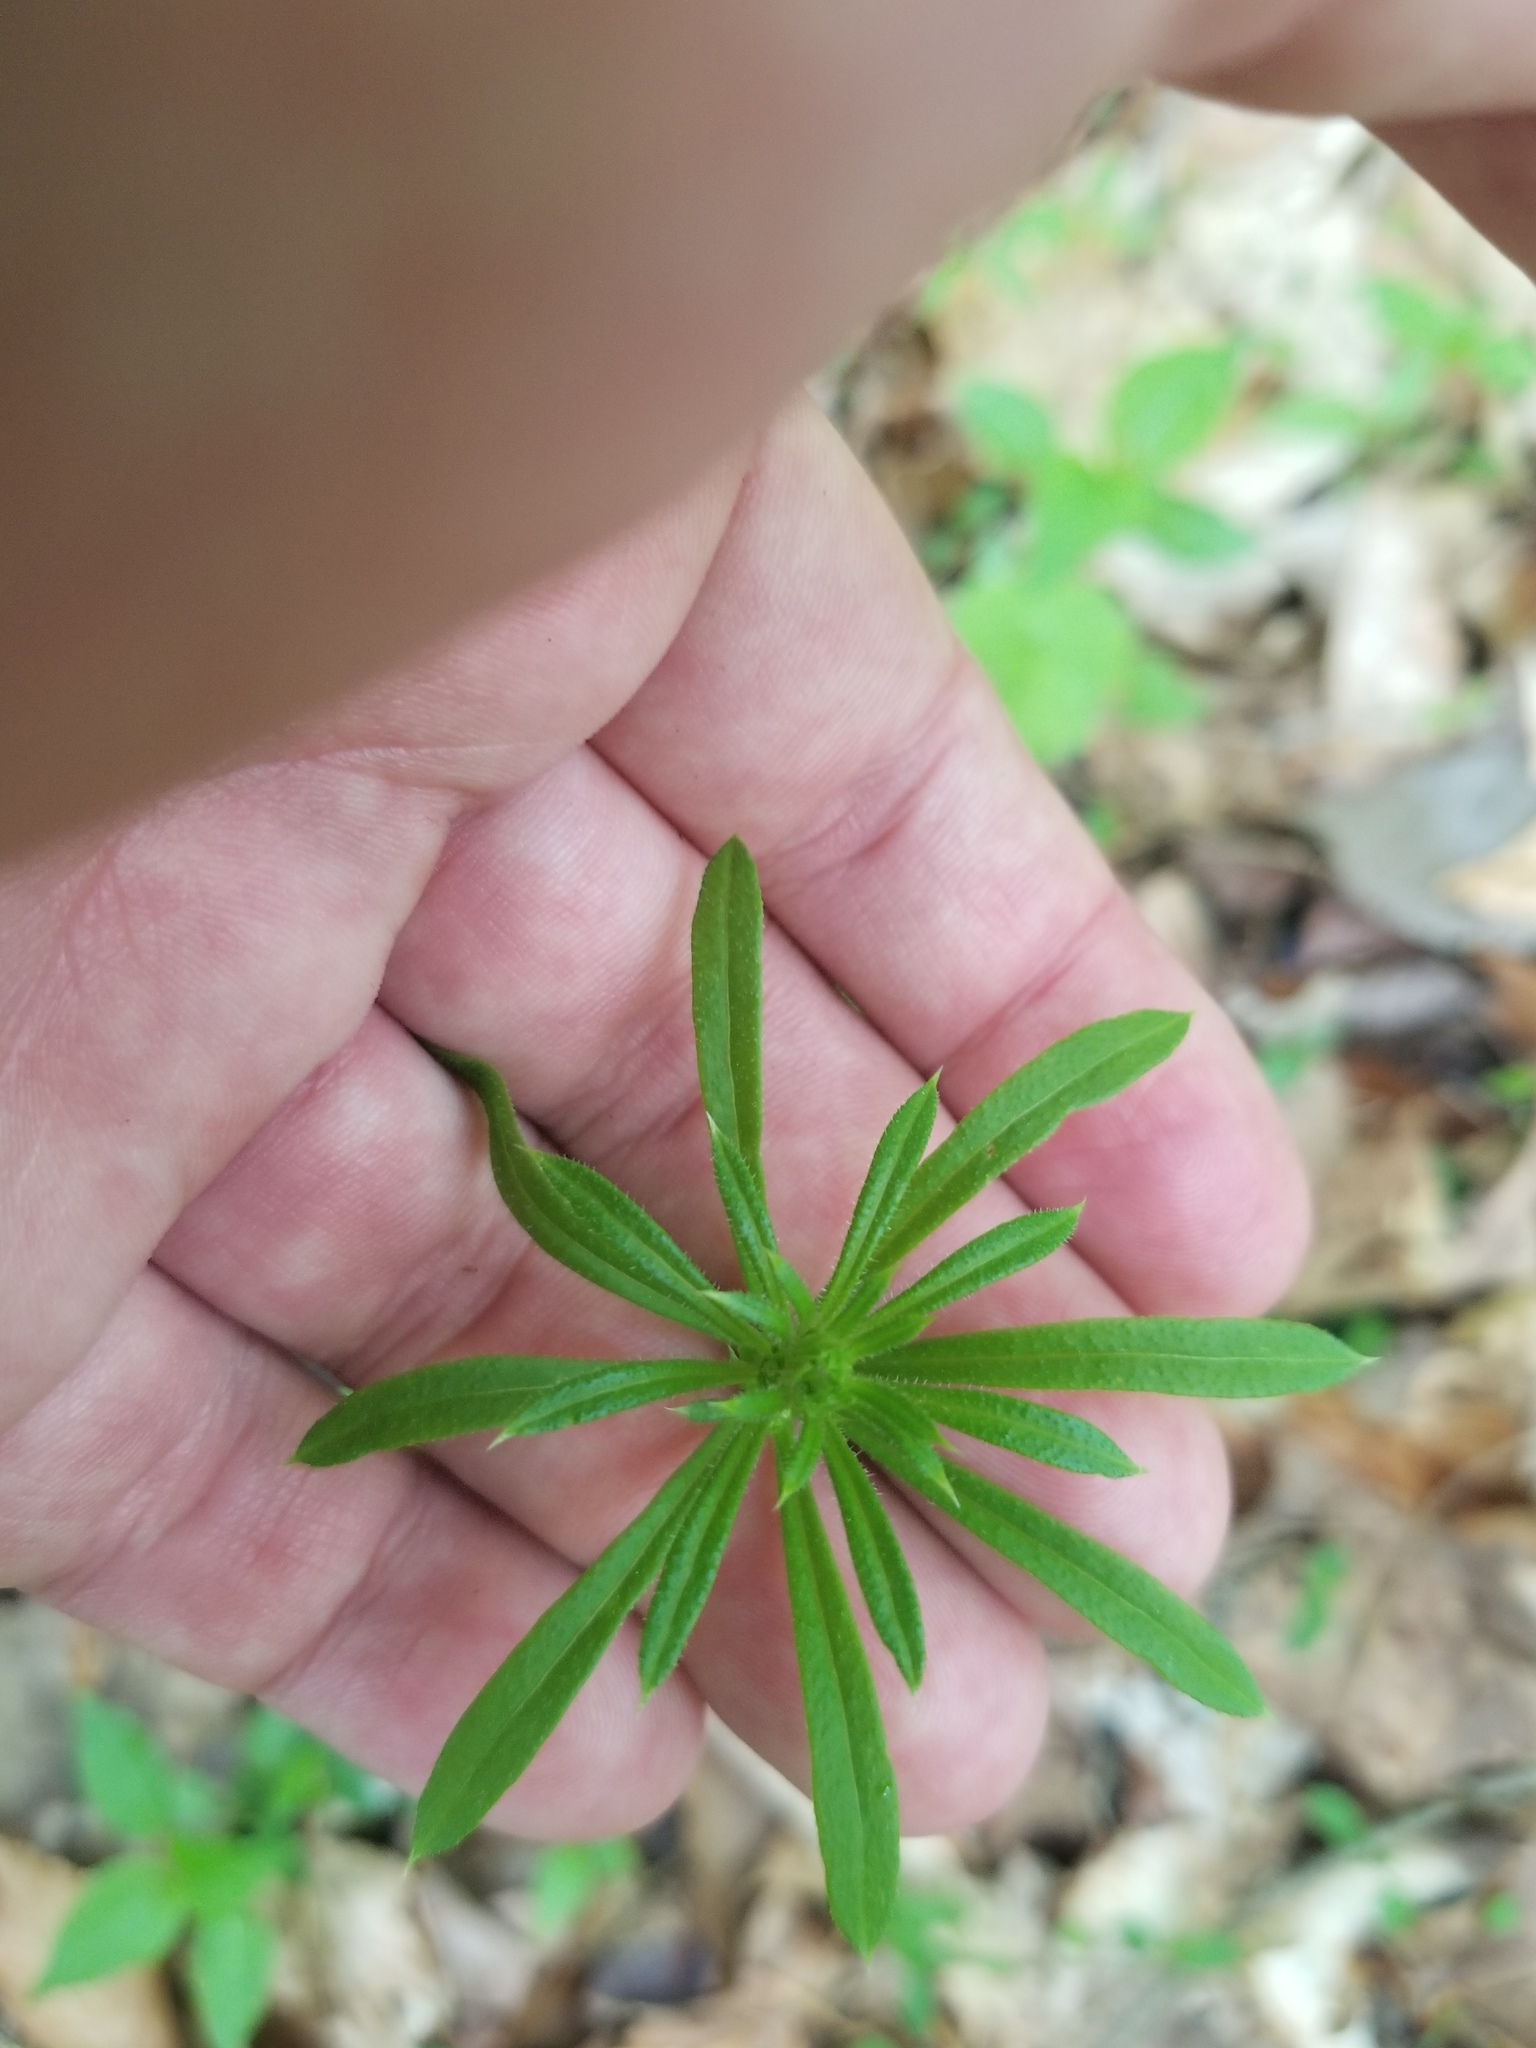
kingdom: Plantae
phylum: Tracheophyta
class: Magnoliopsida
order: Gentianales
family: Rubiaceae
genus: Galium
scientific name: Galium aparine
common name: Cleavers
